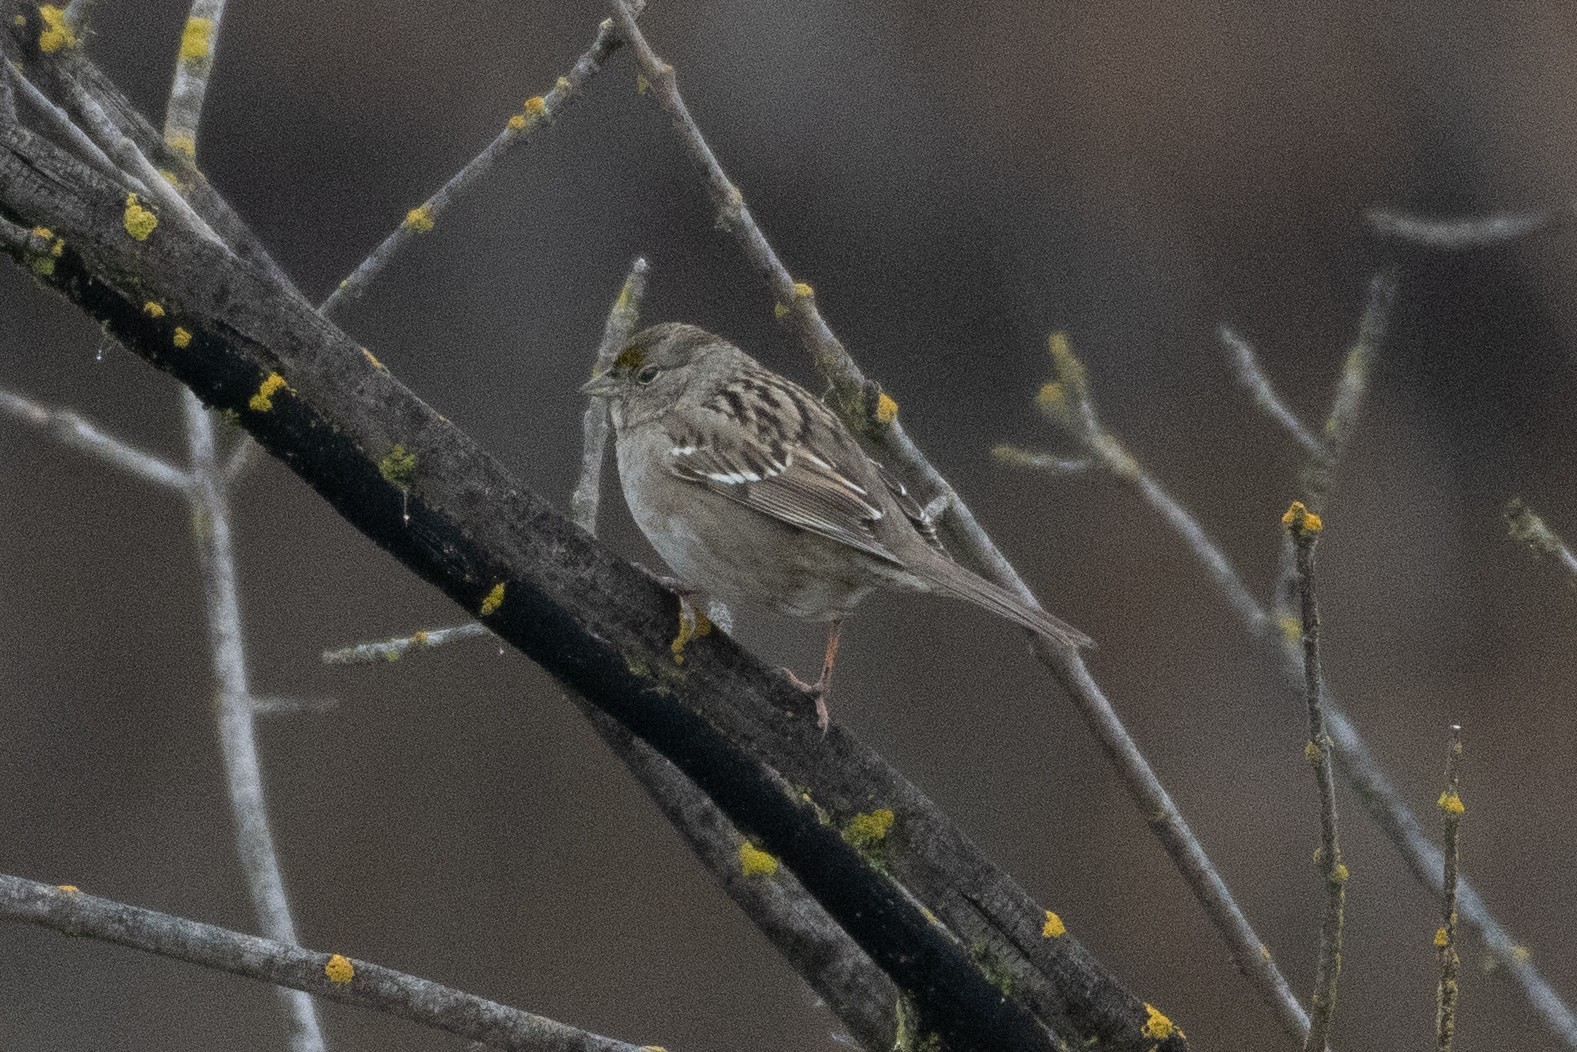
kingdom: Animalia
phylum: Chordata
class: Aves
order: Passeriformes
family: Passerellidae
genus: Zonotrichia
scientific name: Zonotrichia atricapilla
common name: Golden-crowned sparrow
